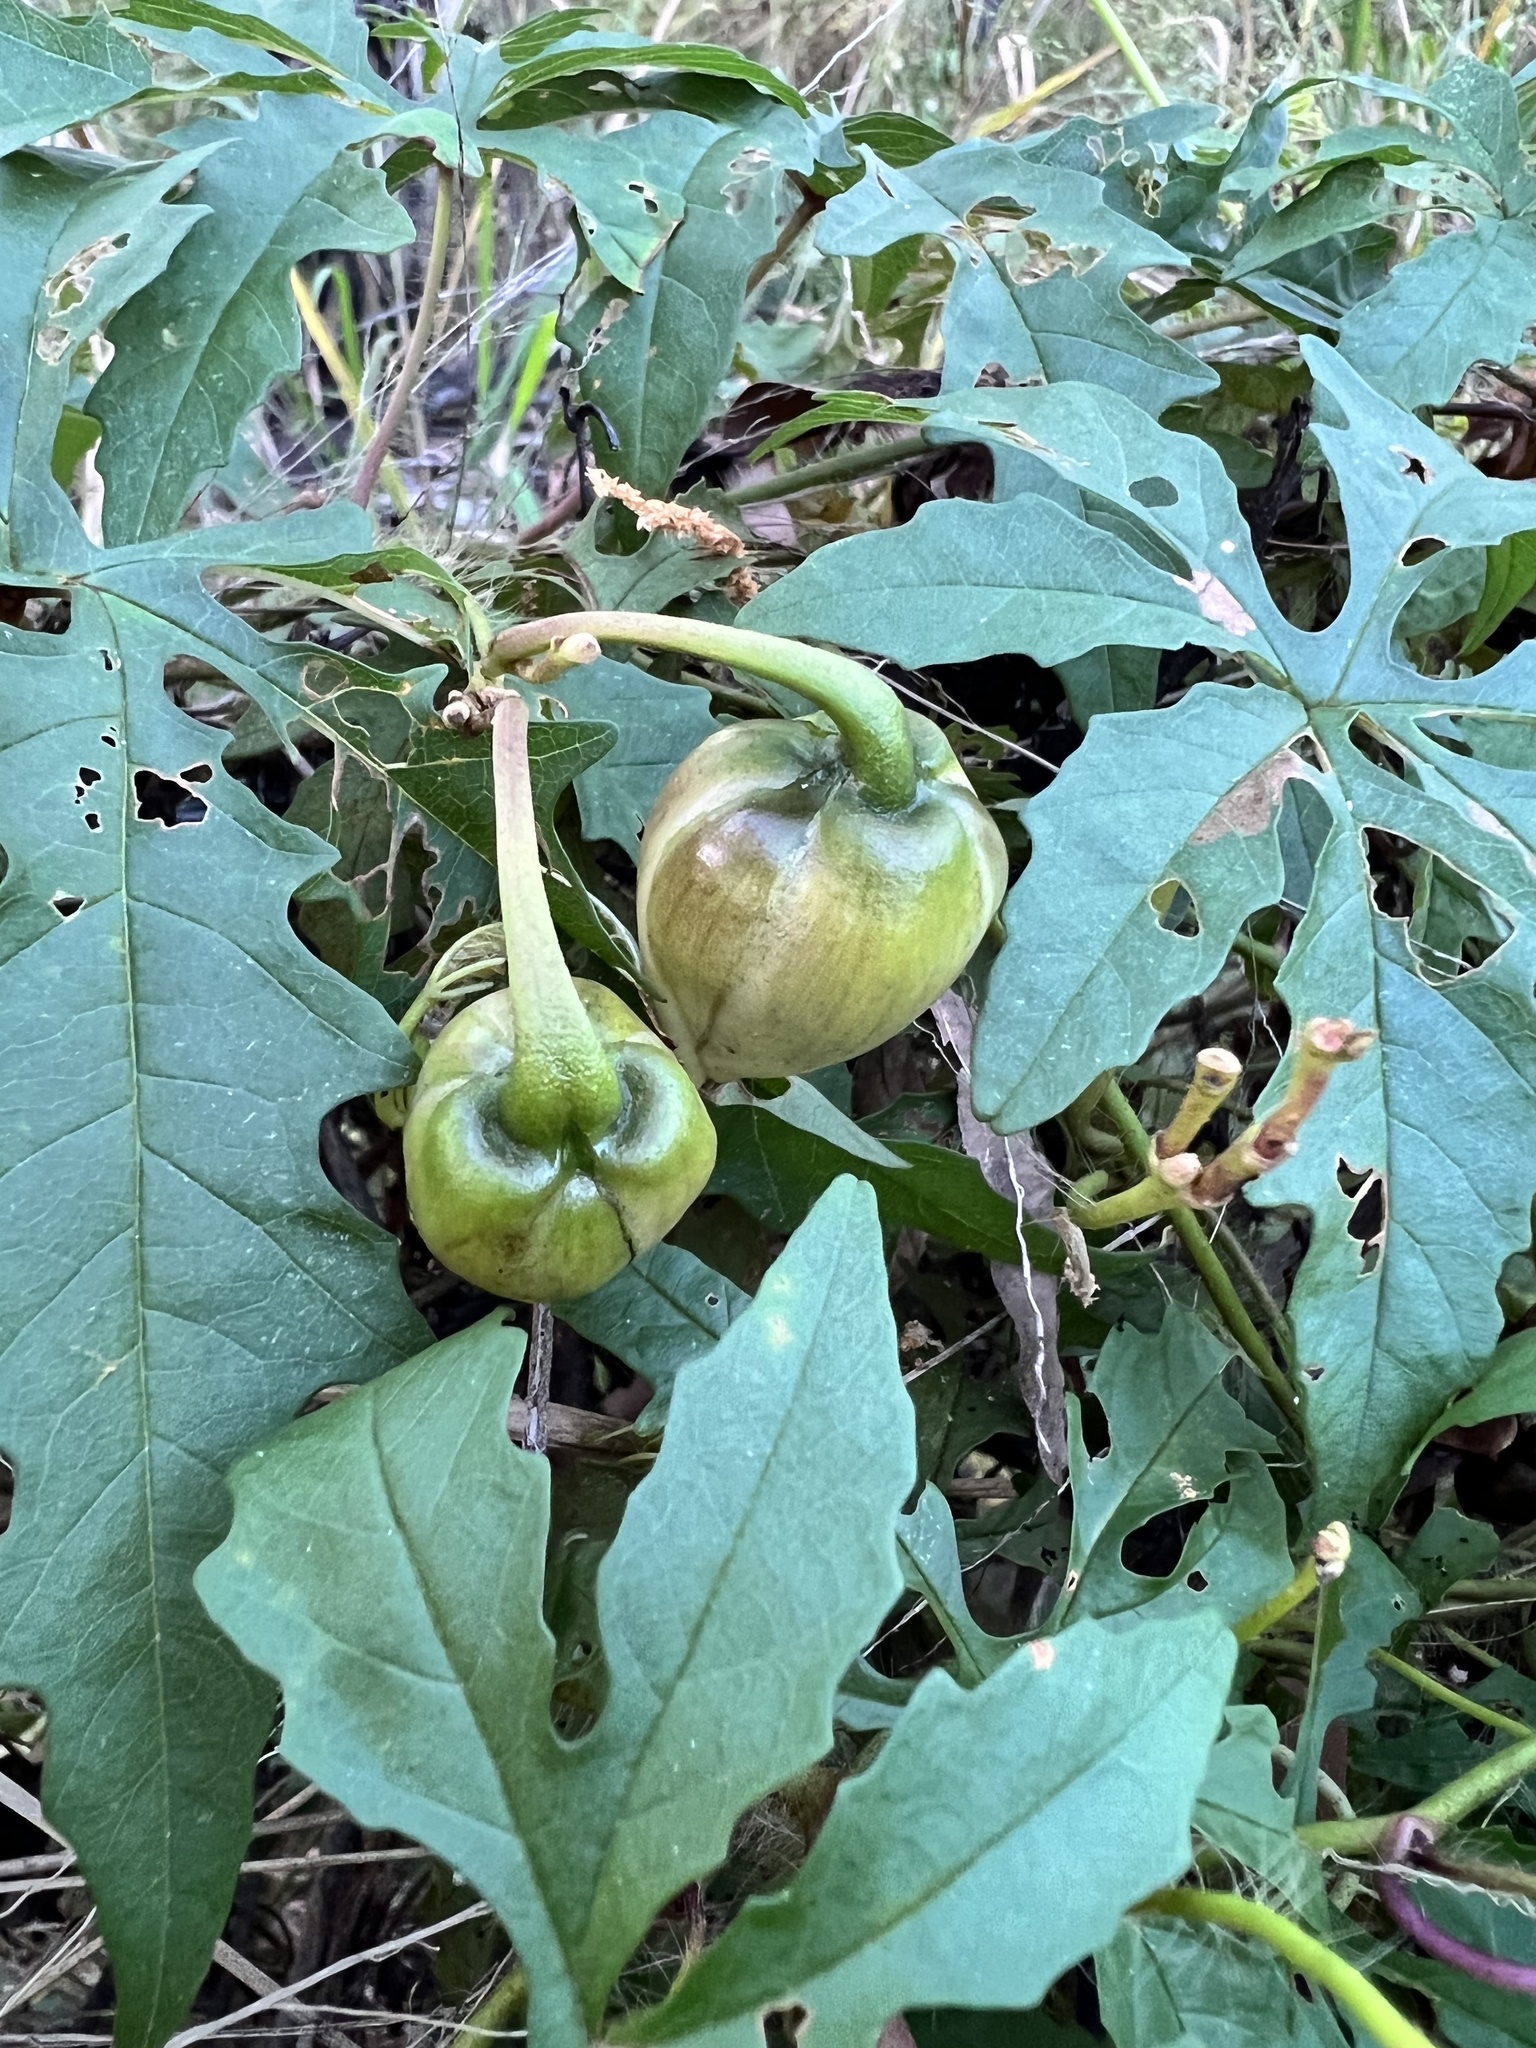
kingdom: Plantae
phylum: Tracheophyta
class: Magnoliopsida
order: Solanales
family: Convolvulaceae
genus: Distimake
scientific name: Distimake dissectus
